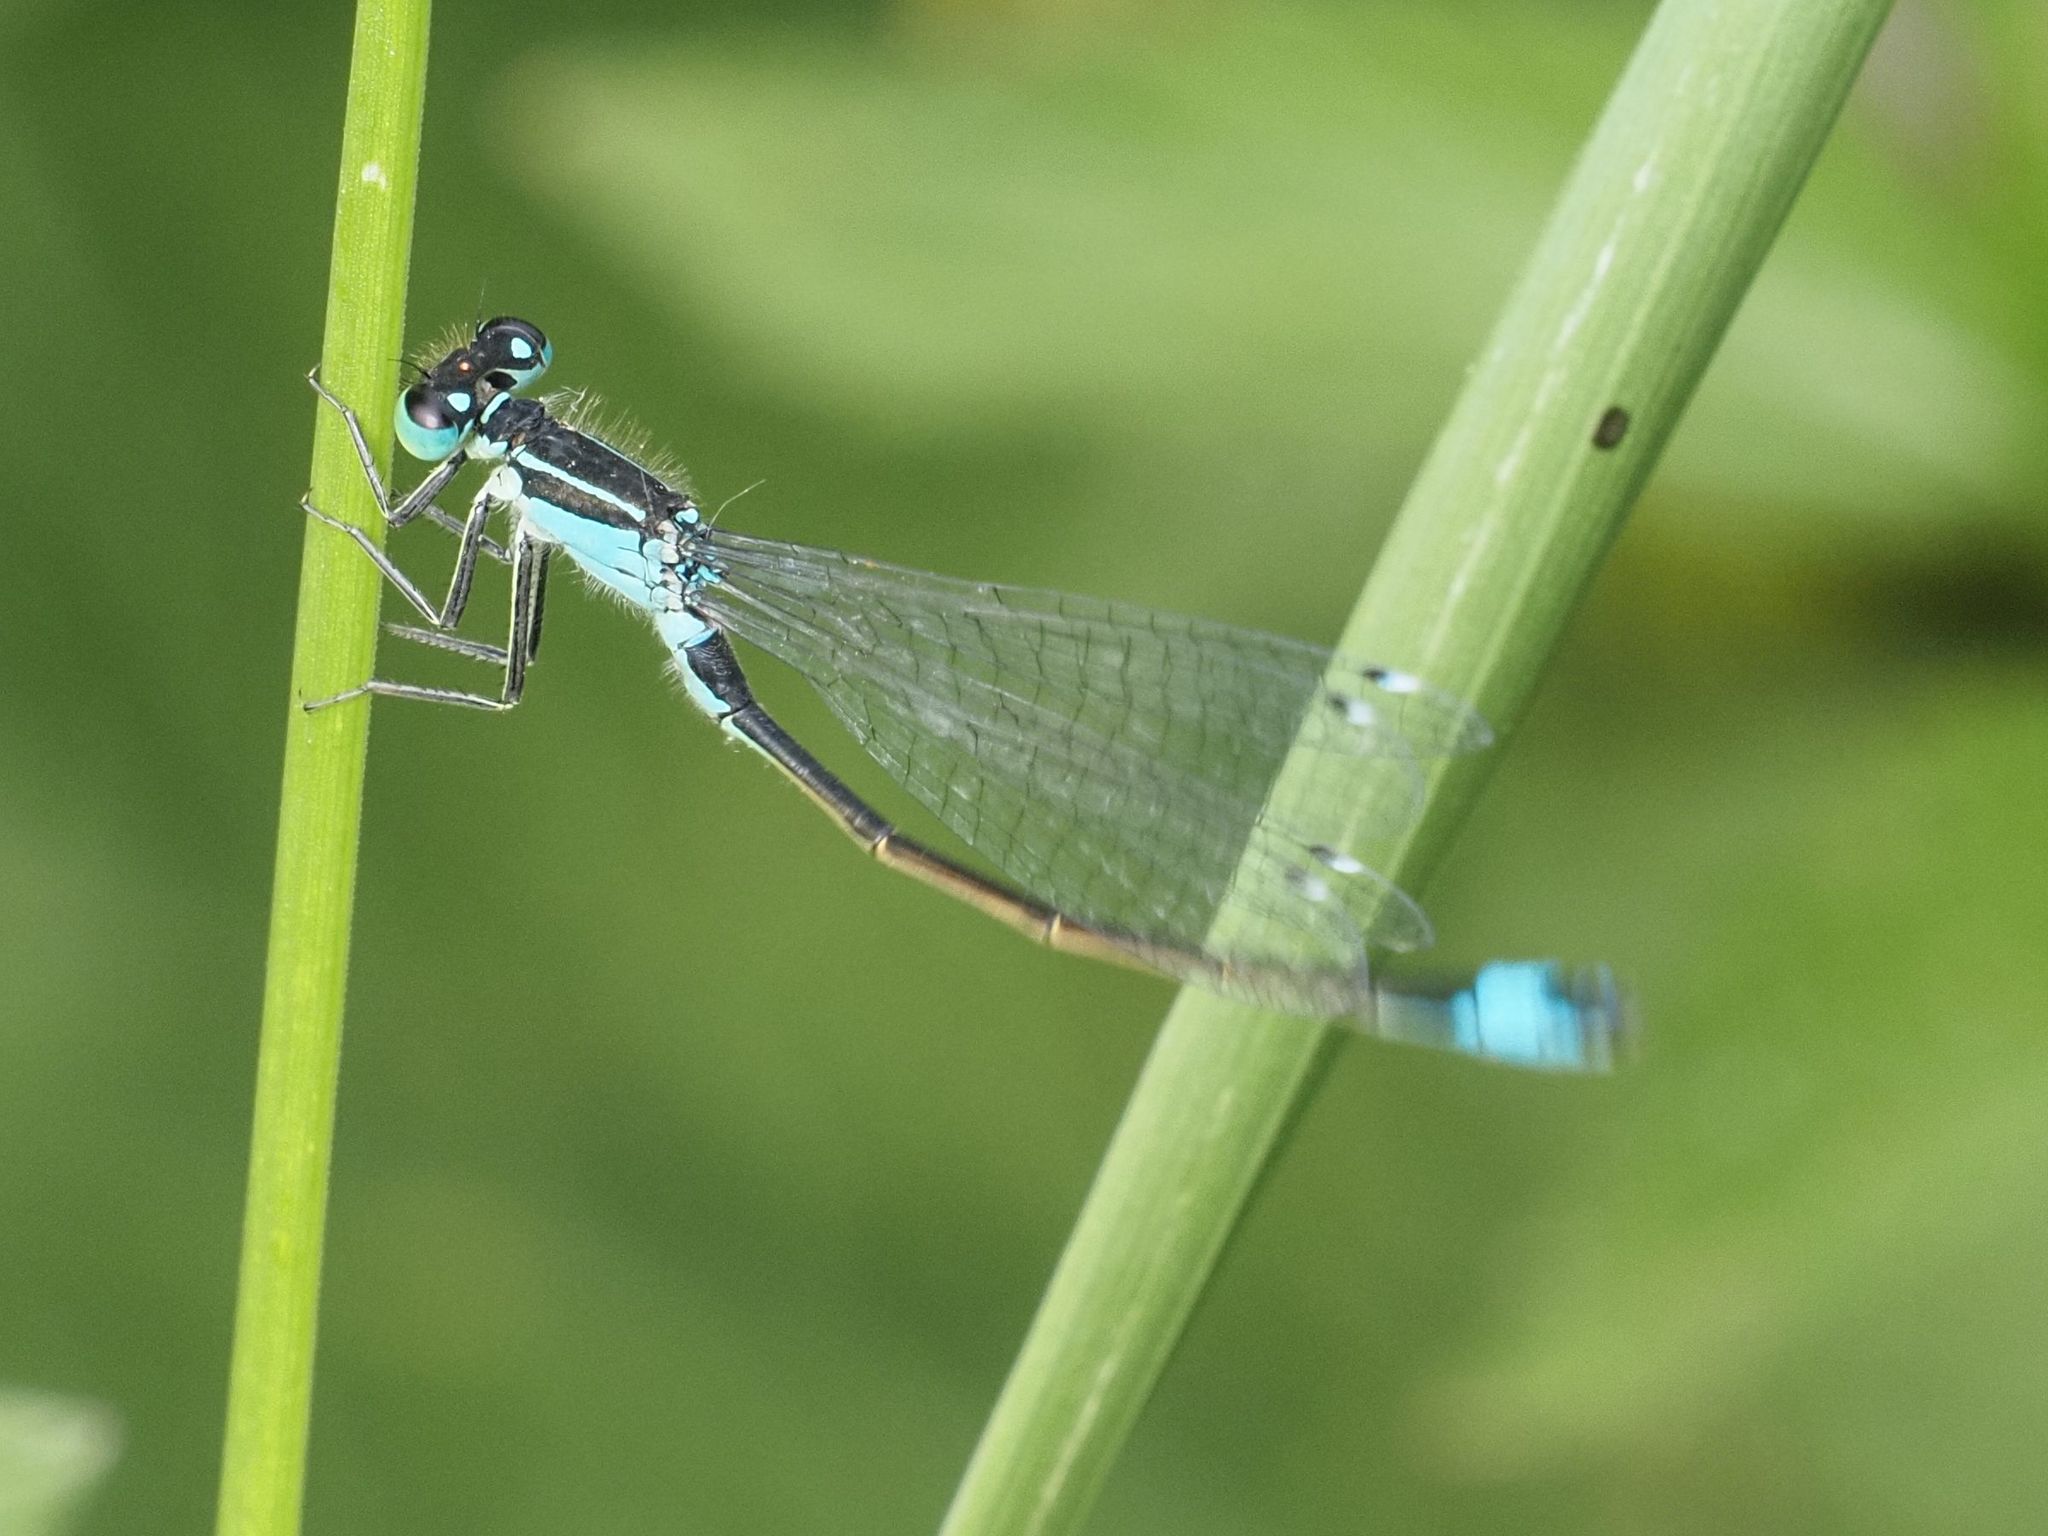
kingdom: Animalia
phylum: Arthropoda
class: Insecta
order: Odonata
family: Coenagrionidae
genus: Ischnura
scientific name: Ischnura elegans
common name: Blue-tailed damselfly
